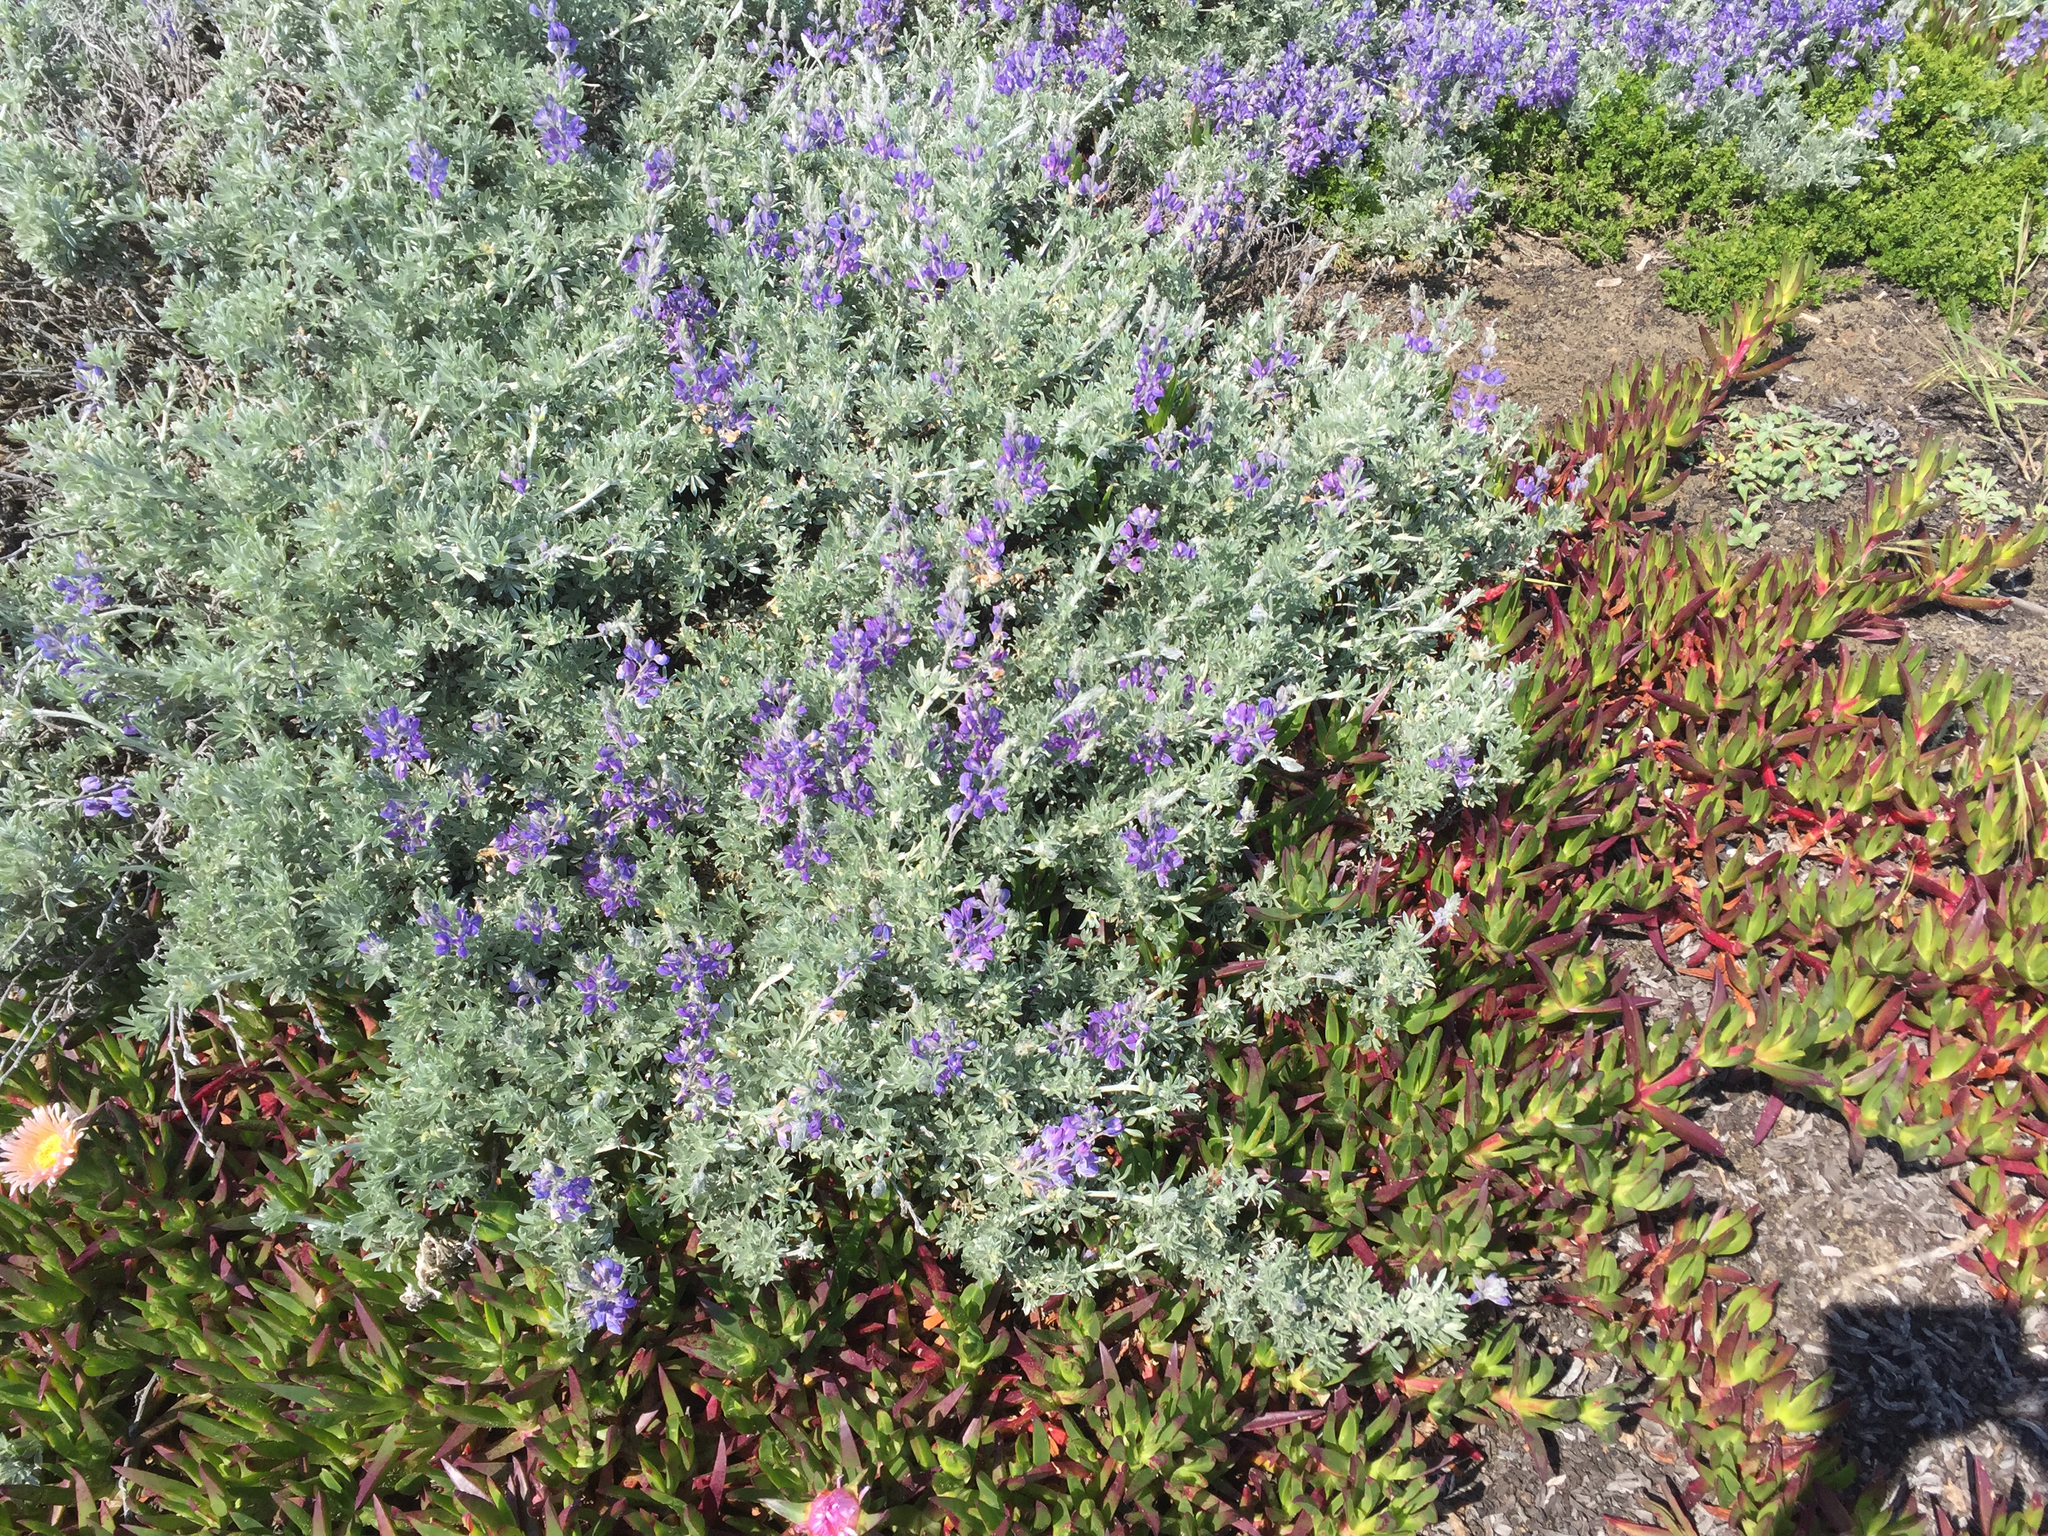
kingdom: Plantae
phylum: Tracheophyta
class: Magnoliopsida
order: Fabales
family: Fabaceae
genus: Lupinus
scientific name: Lupinus chamissonis
